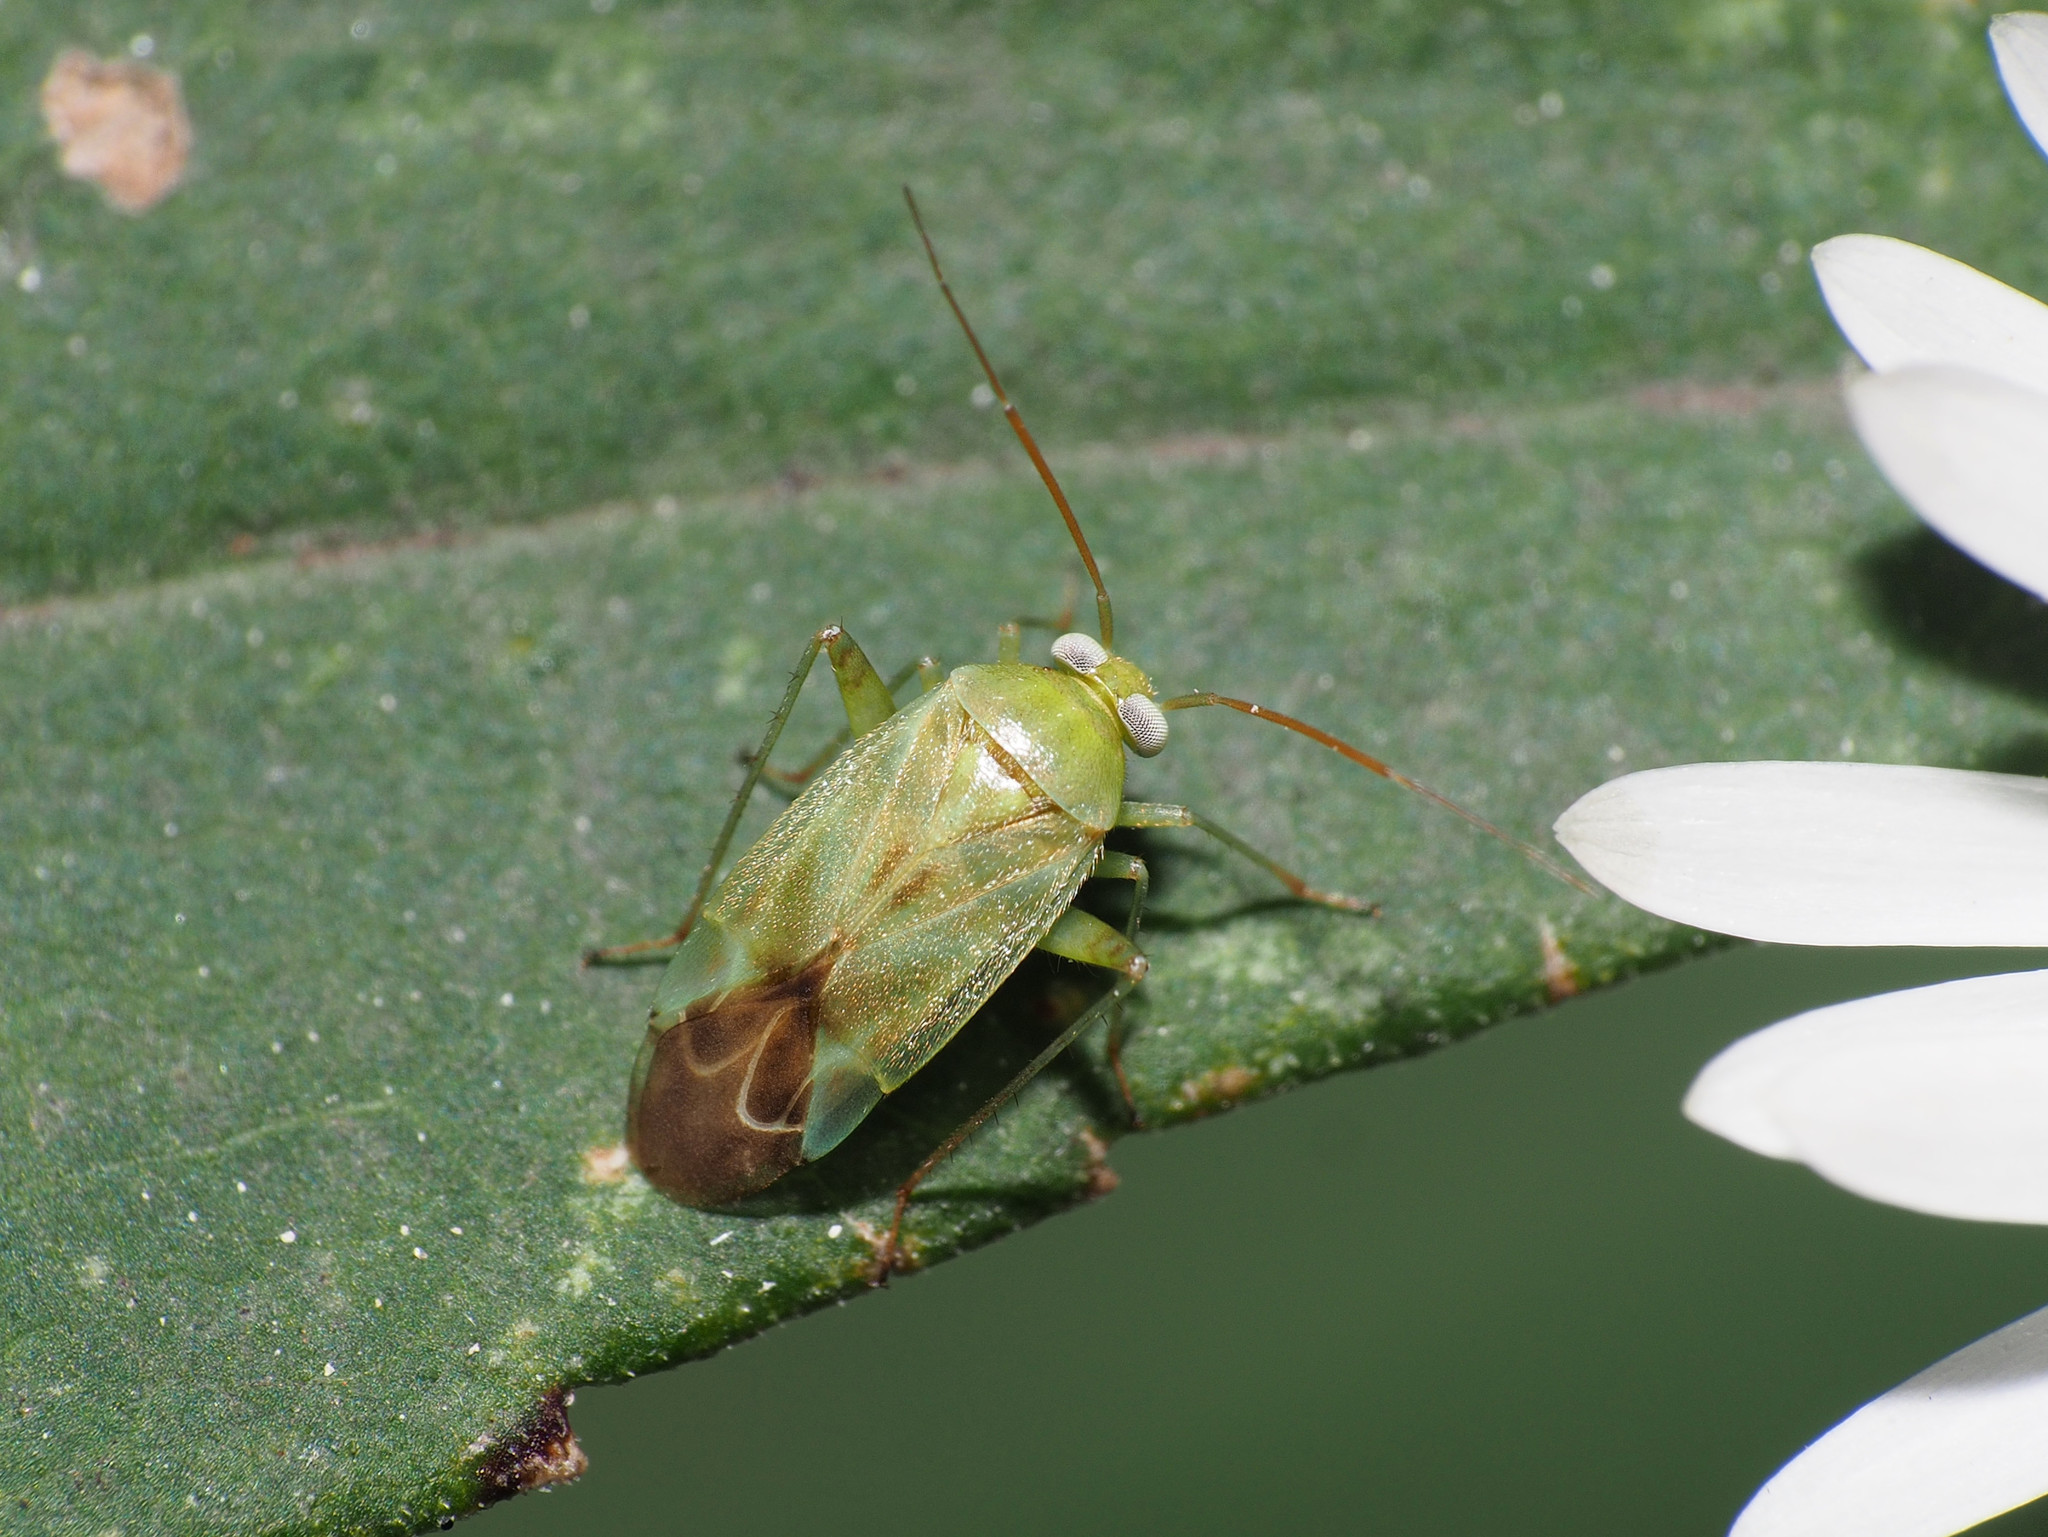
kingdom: Animalia
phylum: Arthropoda
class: Insecta
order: Hemiptera
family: Miridae
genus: Taylorilygus
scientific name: Taylorilygus apicalis
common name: Plant bug
